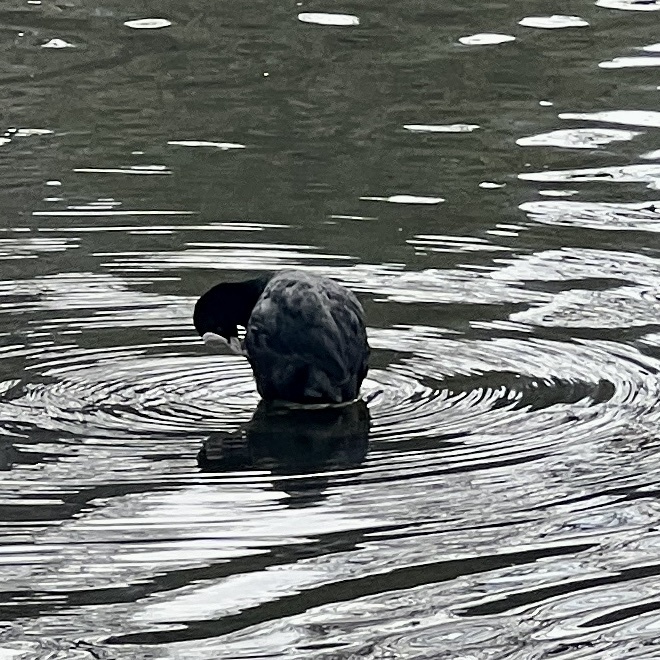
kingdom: Animalia
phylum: Chordata
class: Aves
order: Gruiformes
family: Rallidae
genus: Fulica
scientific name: Fulica atra
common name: Eurasian coot
